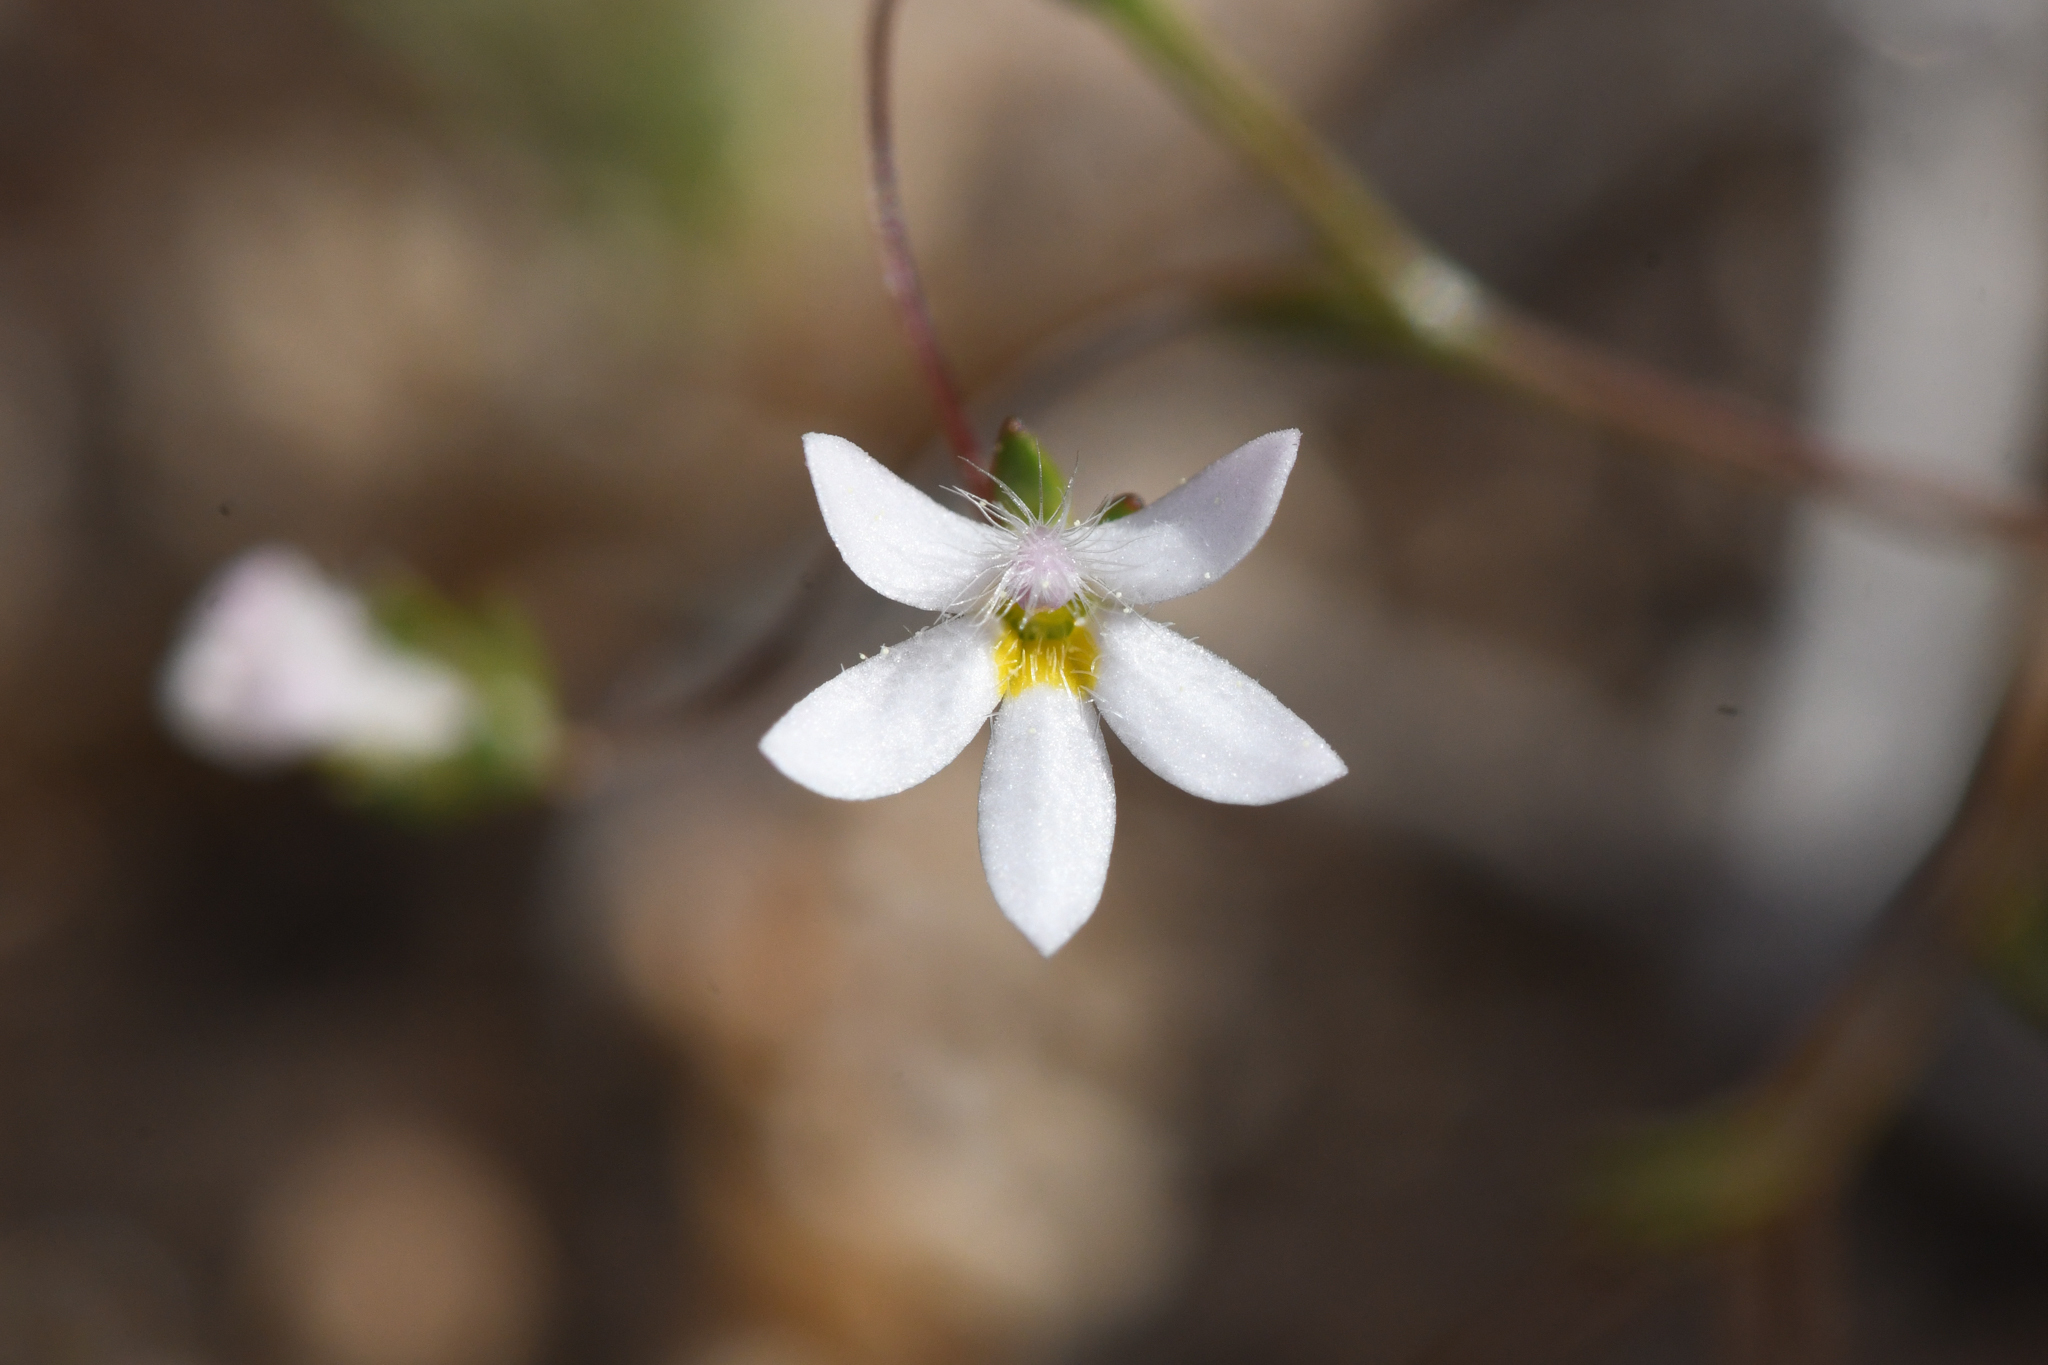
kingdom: Plantae
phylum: Tracheophyta
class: Magnoliopsida
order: Asterales
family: Campanulaceae
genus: Nemacladus
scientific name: Nemacladus bellus
